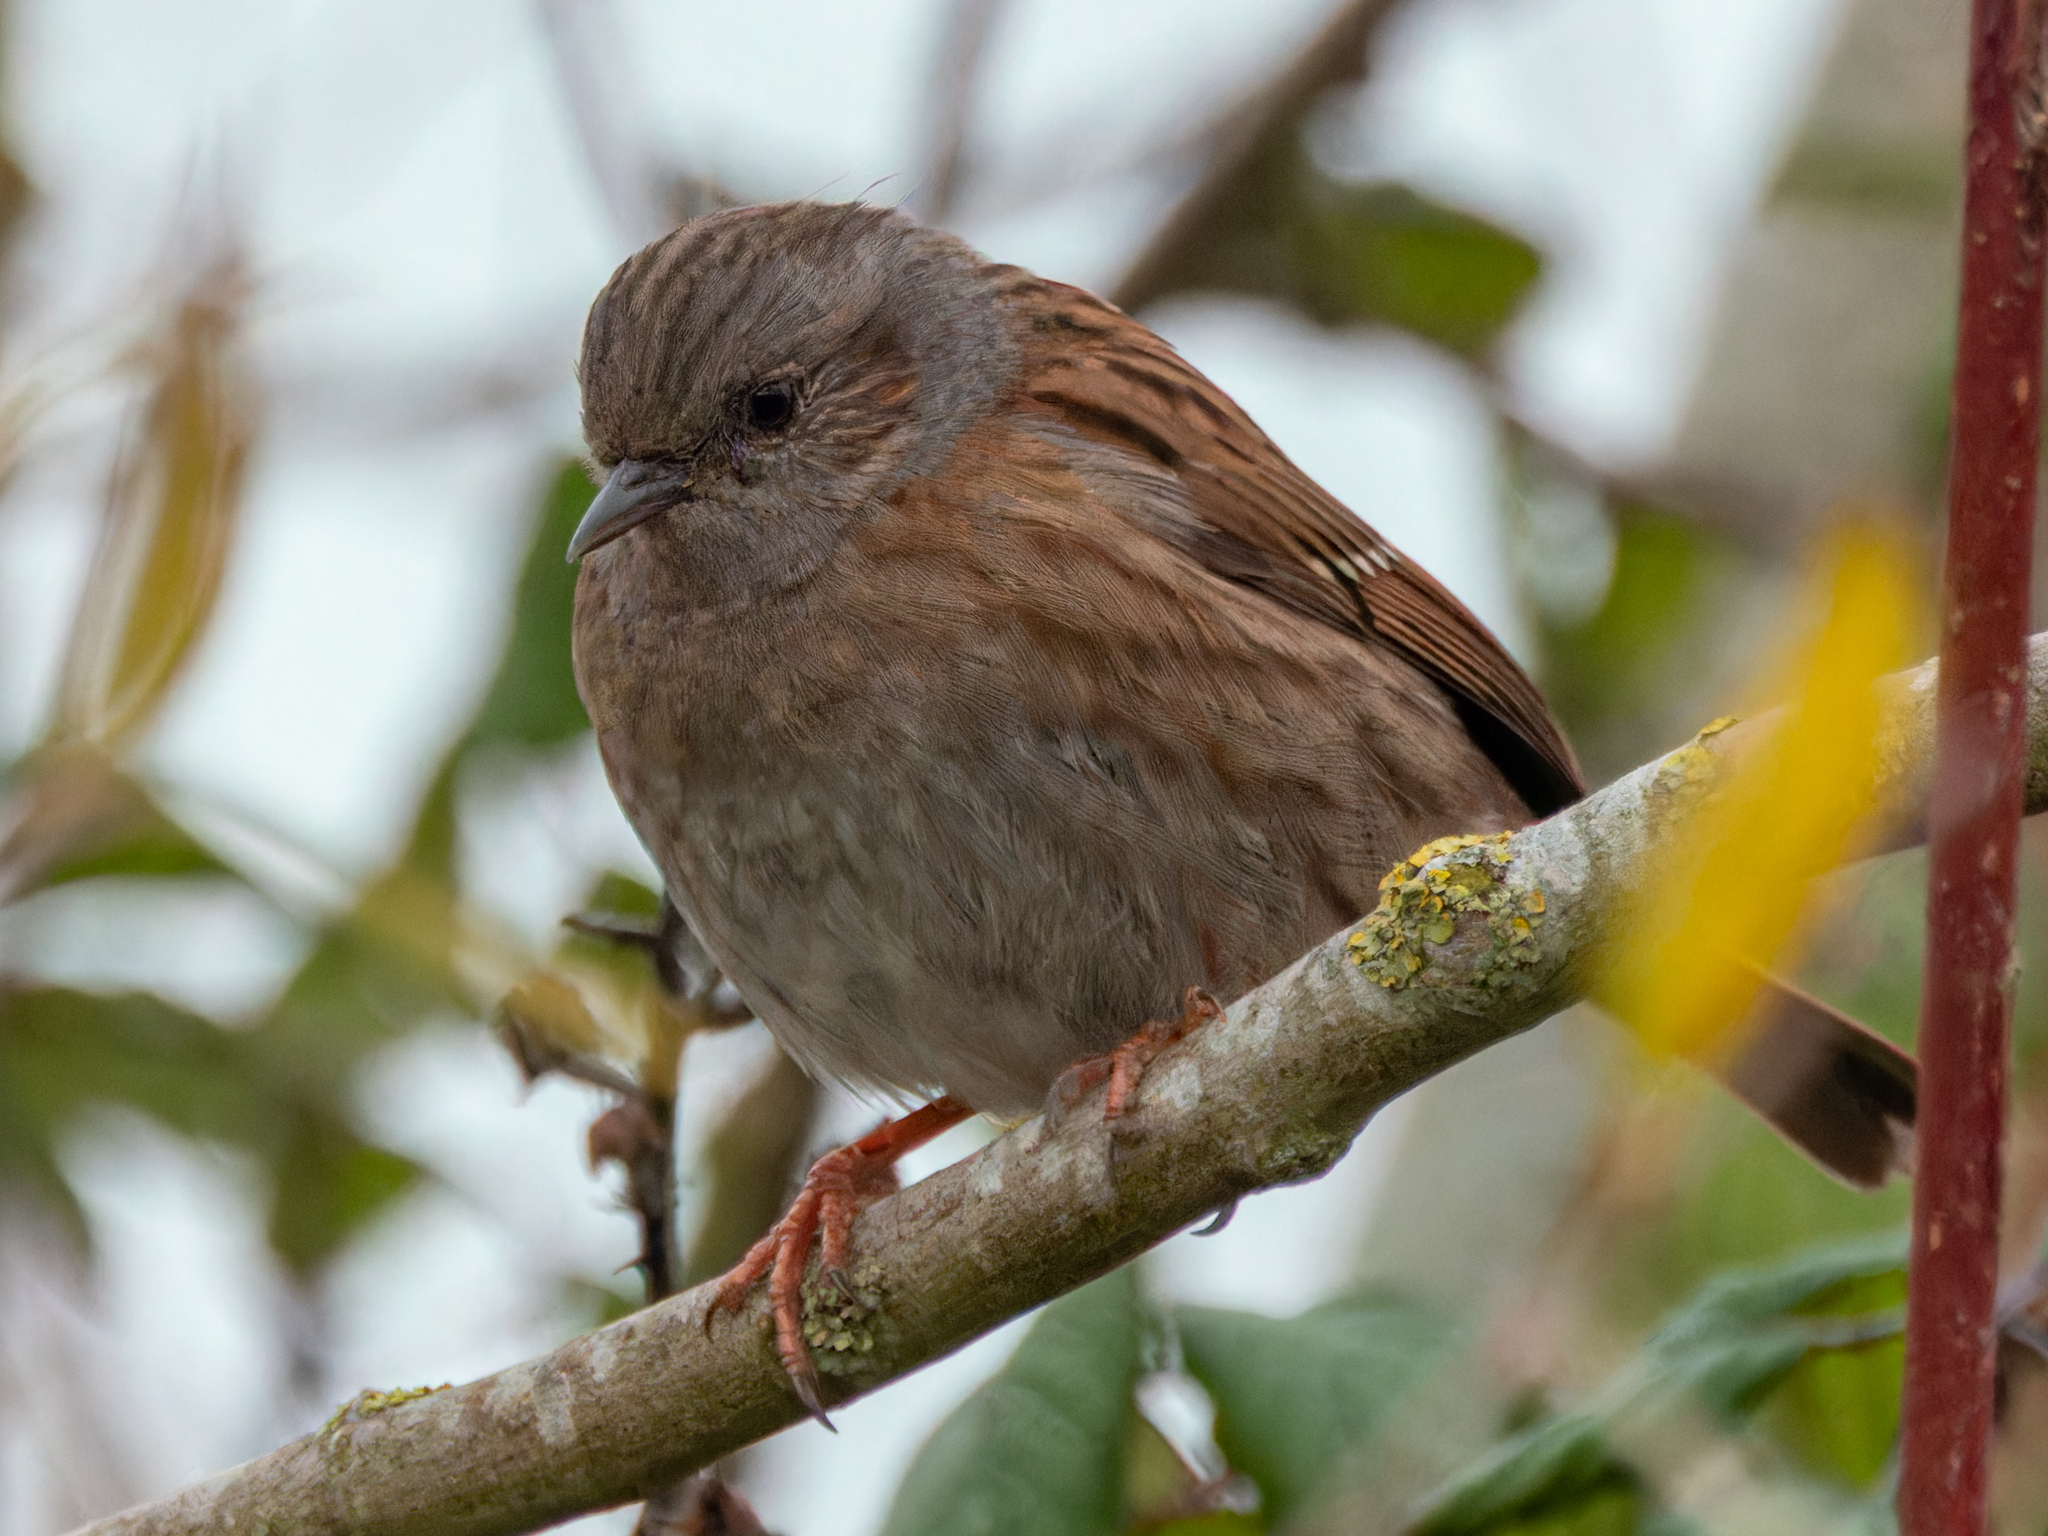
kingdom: Animalia
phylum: Chordata
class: Aves
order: Passeriformes
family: Prunellidae
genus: Prunella
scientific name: Prunella modularis
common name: Dunnock
